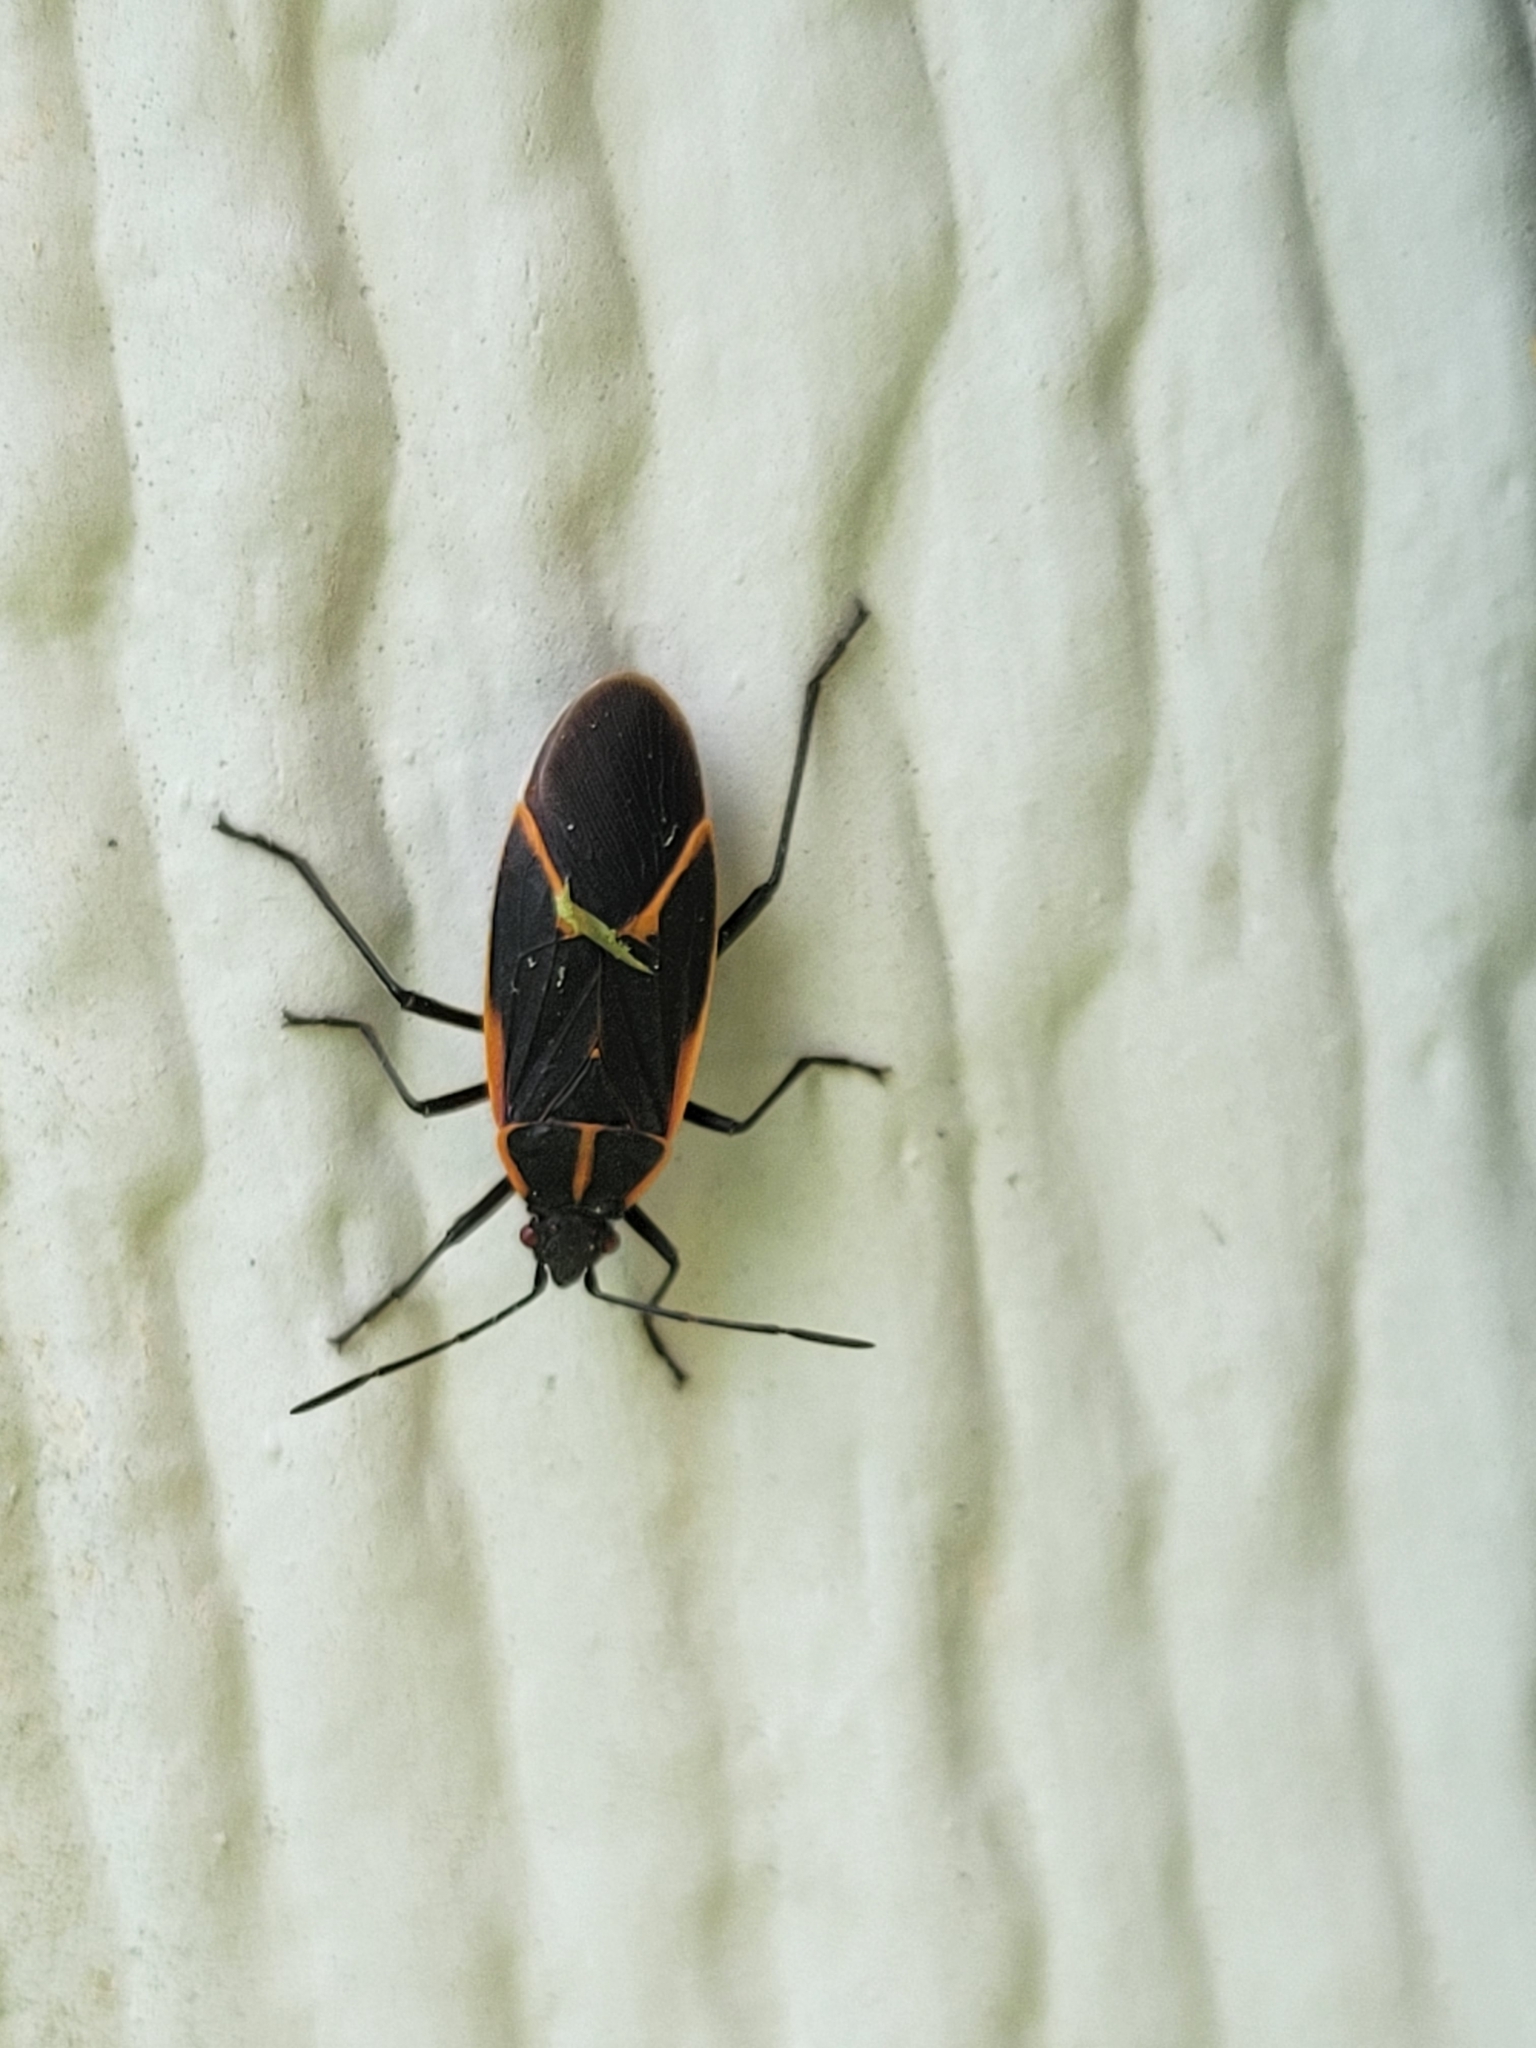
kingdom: Animalia
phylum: Arthropoda
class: Insecta
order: Hemiptera
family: Rhopalidae
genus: Boisea
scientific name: Boisea trivittata
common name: Boxelder bug
